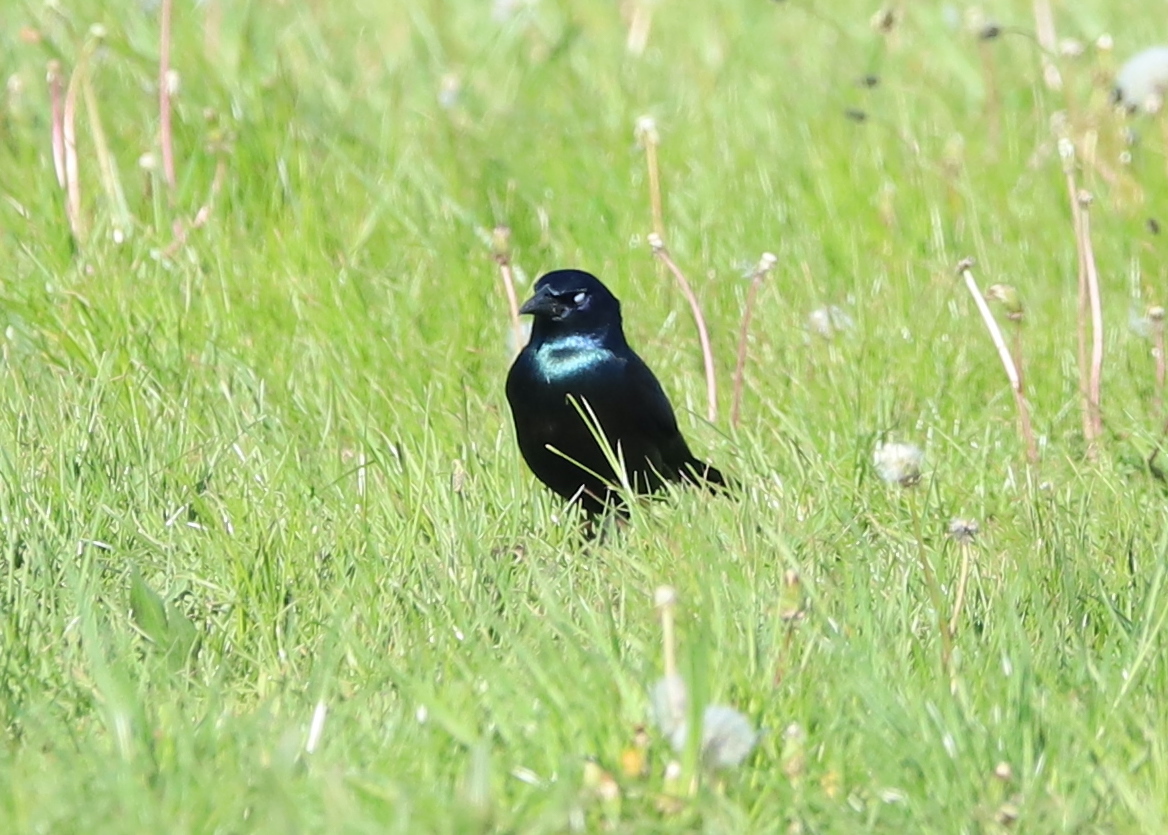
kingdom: Animalia
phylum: Chordata
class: Aves
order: Passeriformes
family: Icteridae
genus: Quiscalus
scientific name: Quiscalus quiscula
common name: Common grackle
